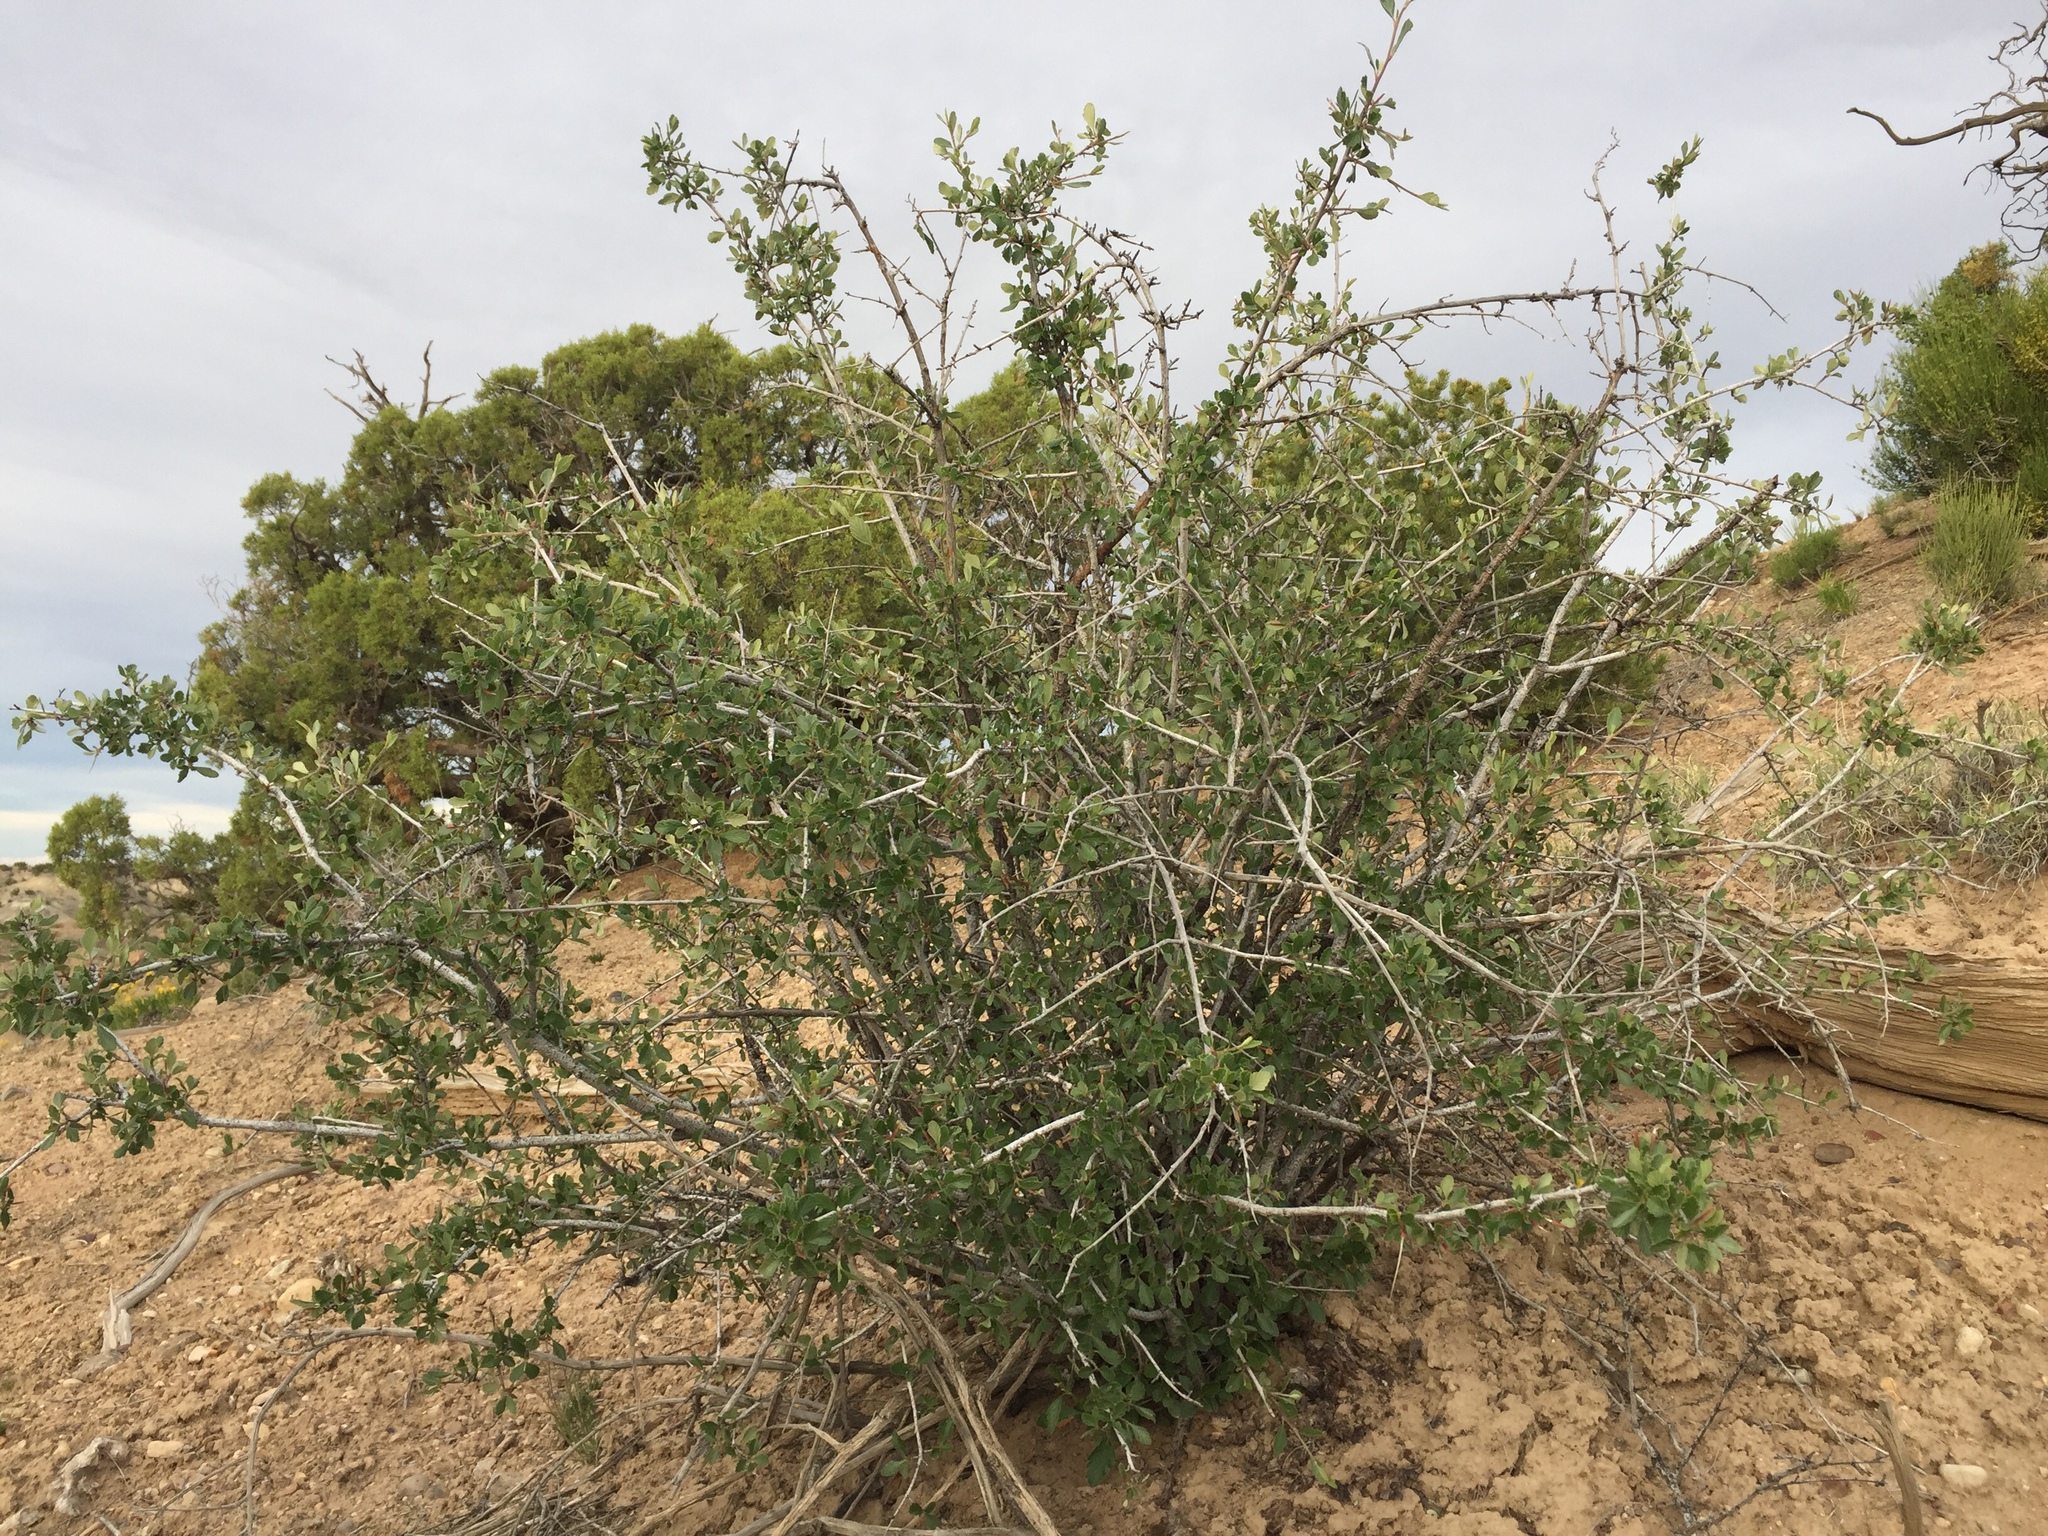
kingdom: Plantae
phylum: Tracheophyta
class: Magnoliopsida
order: Rosales
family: Rosaceae
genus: Cercocarpus
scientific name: Cercocarpus montanus
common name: Alder-leaf cercocarpus
